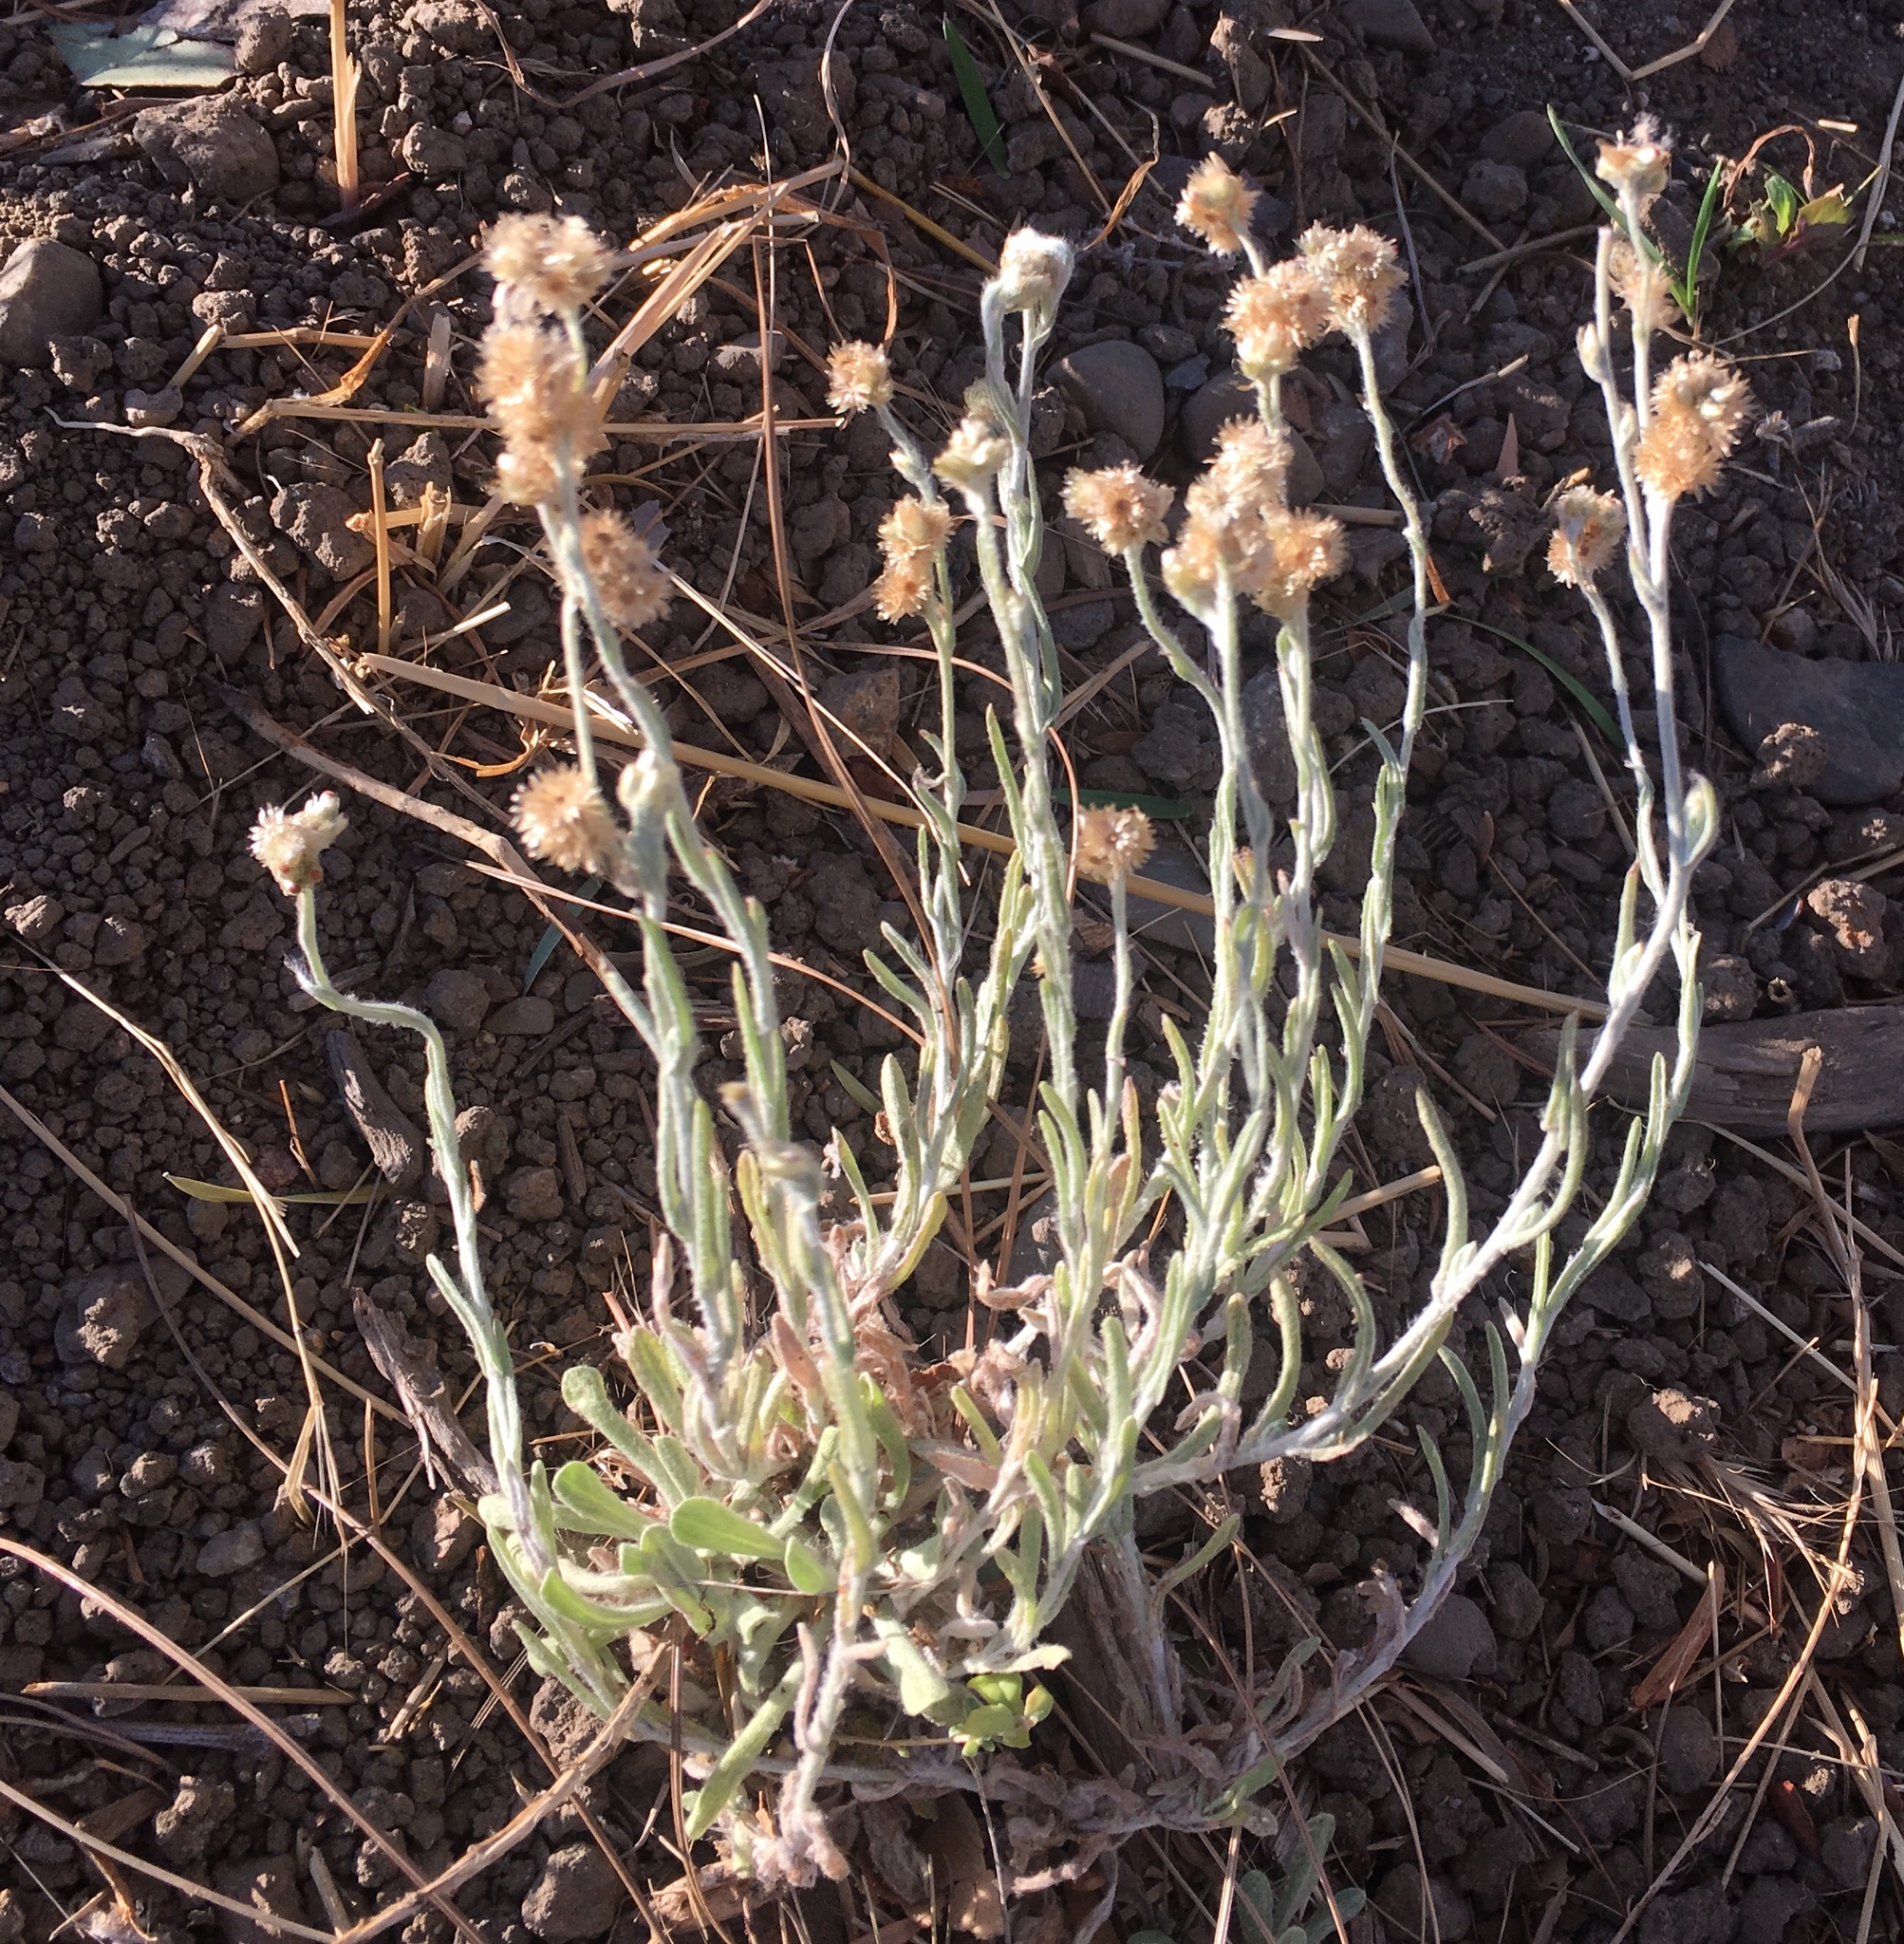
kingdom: Plantae
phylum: Tracheophyta
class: Magnoliopsida
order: Asterales
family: Asteraceae
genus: Helichrysum
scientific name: Helichrysum luteoalbum
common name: Daisy
